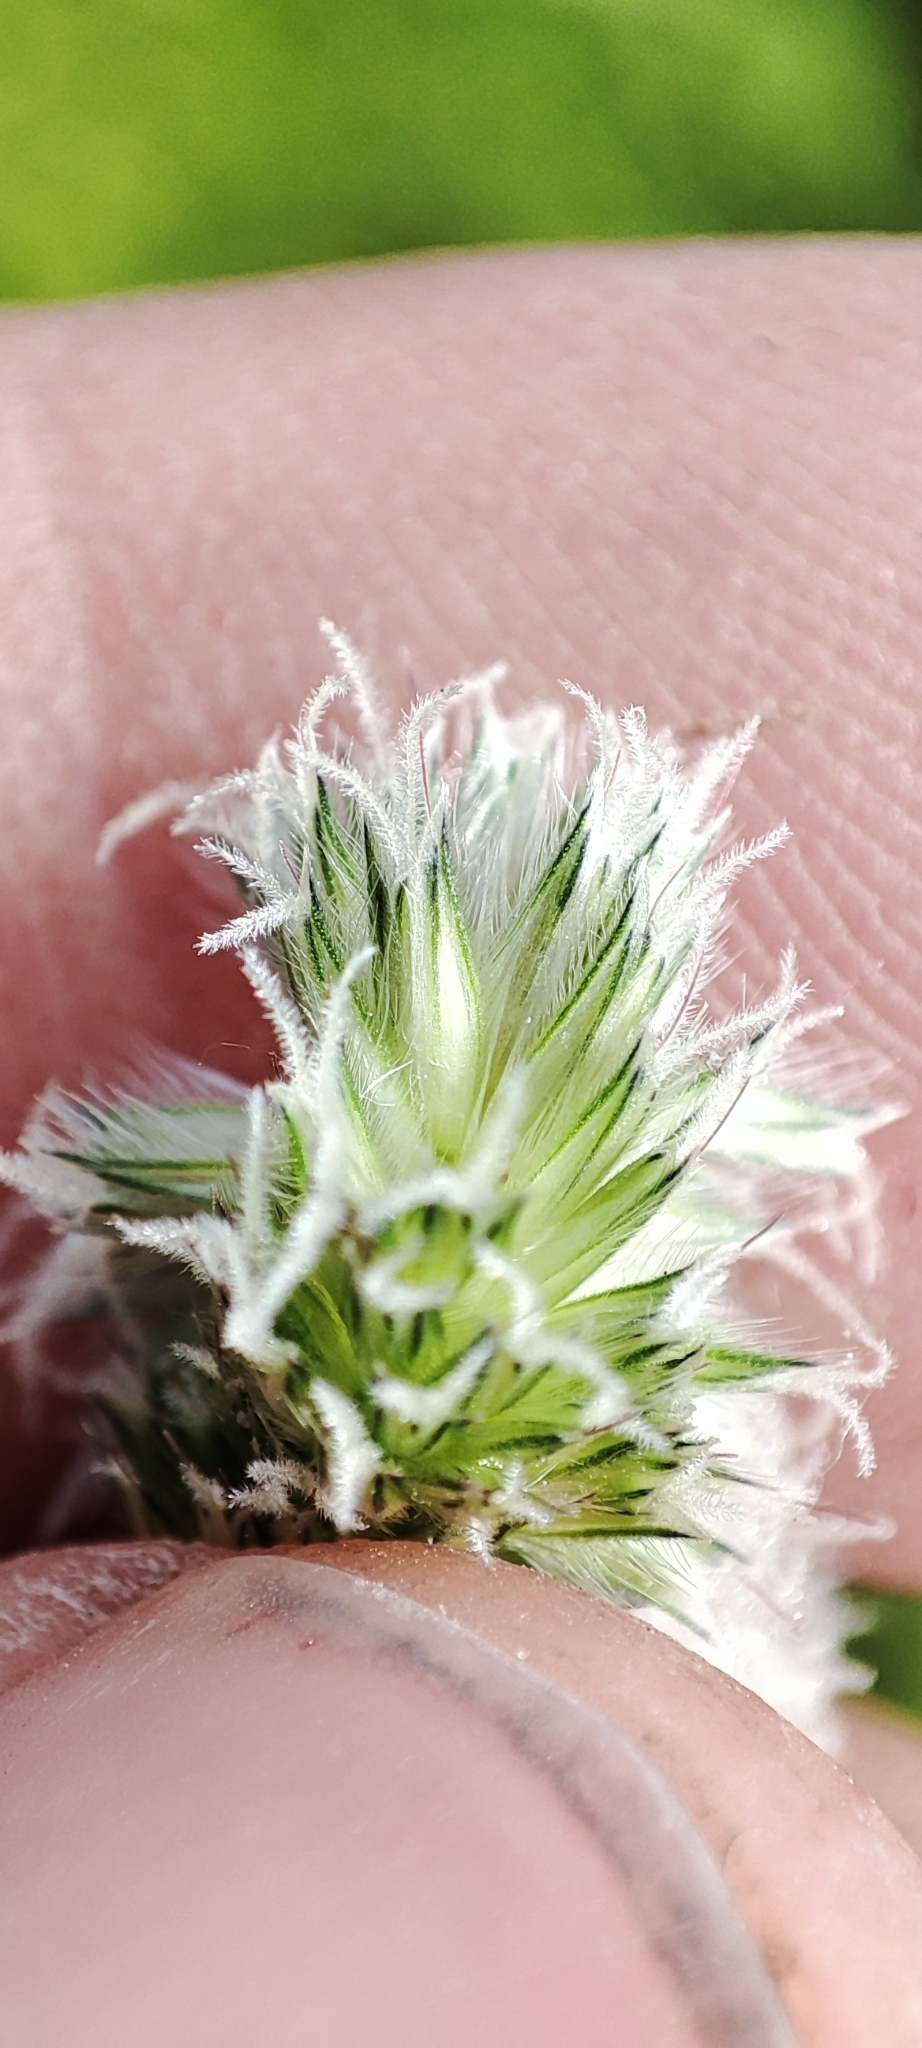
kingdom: Plantae
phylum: Tracheophyta
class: Liliopsida
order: Poales
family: Poaceae
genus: Alopecurus
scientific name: Alopecurus pratensis
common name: Meadow foxtail
